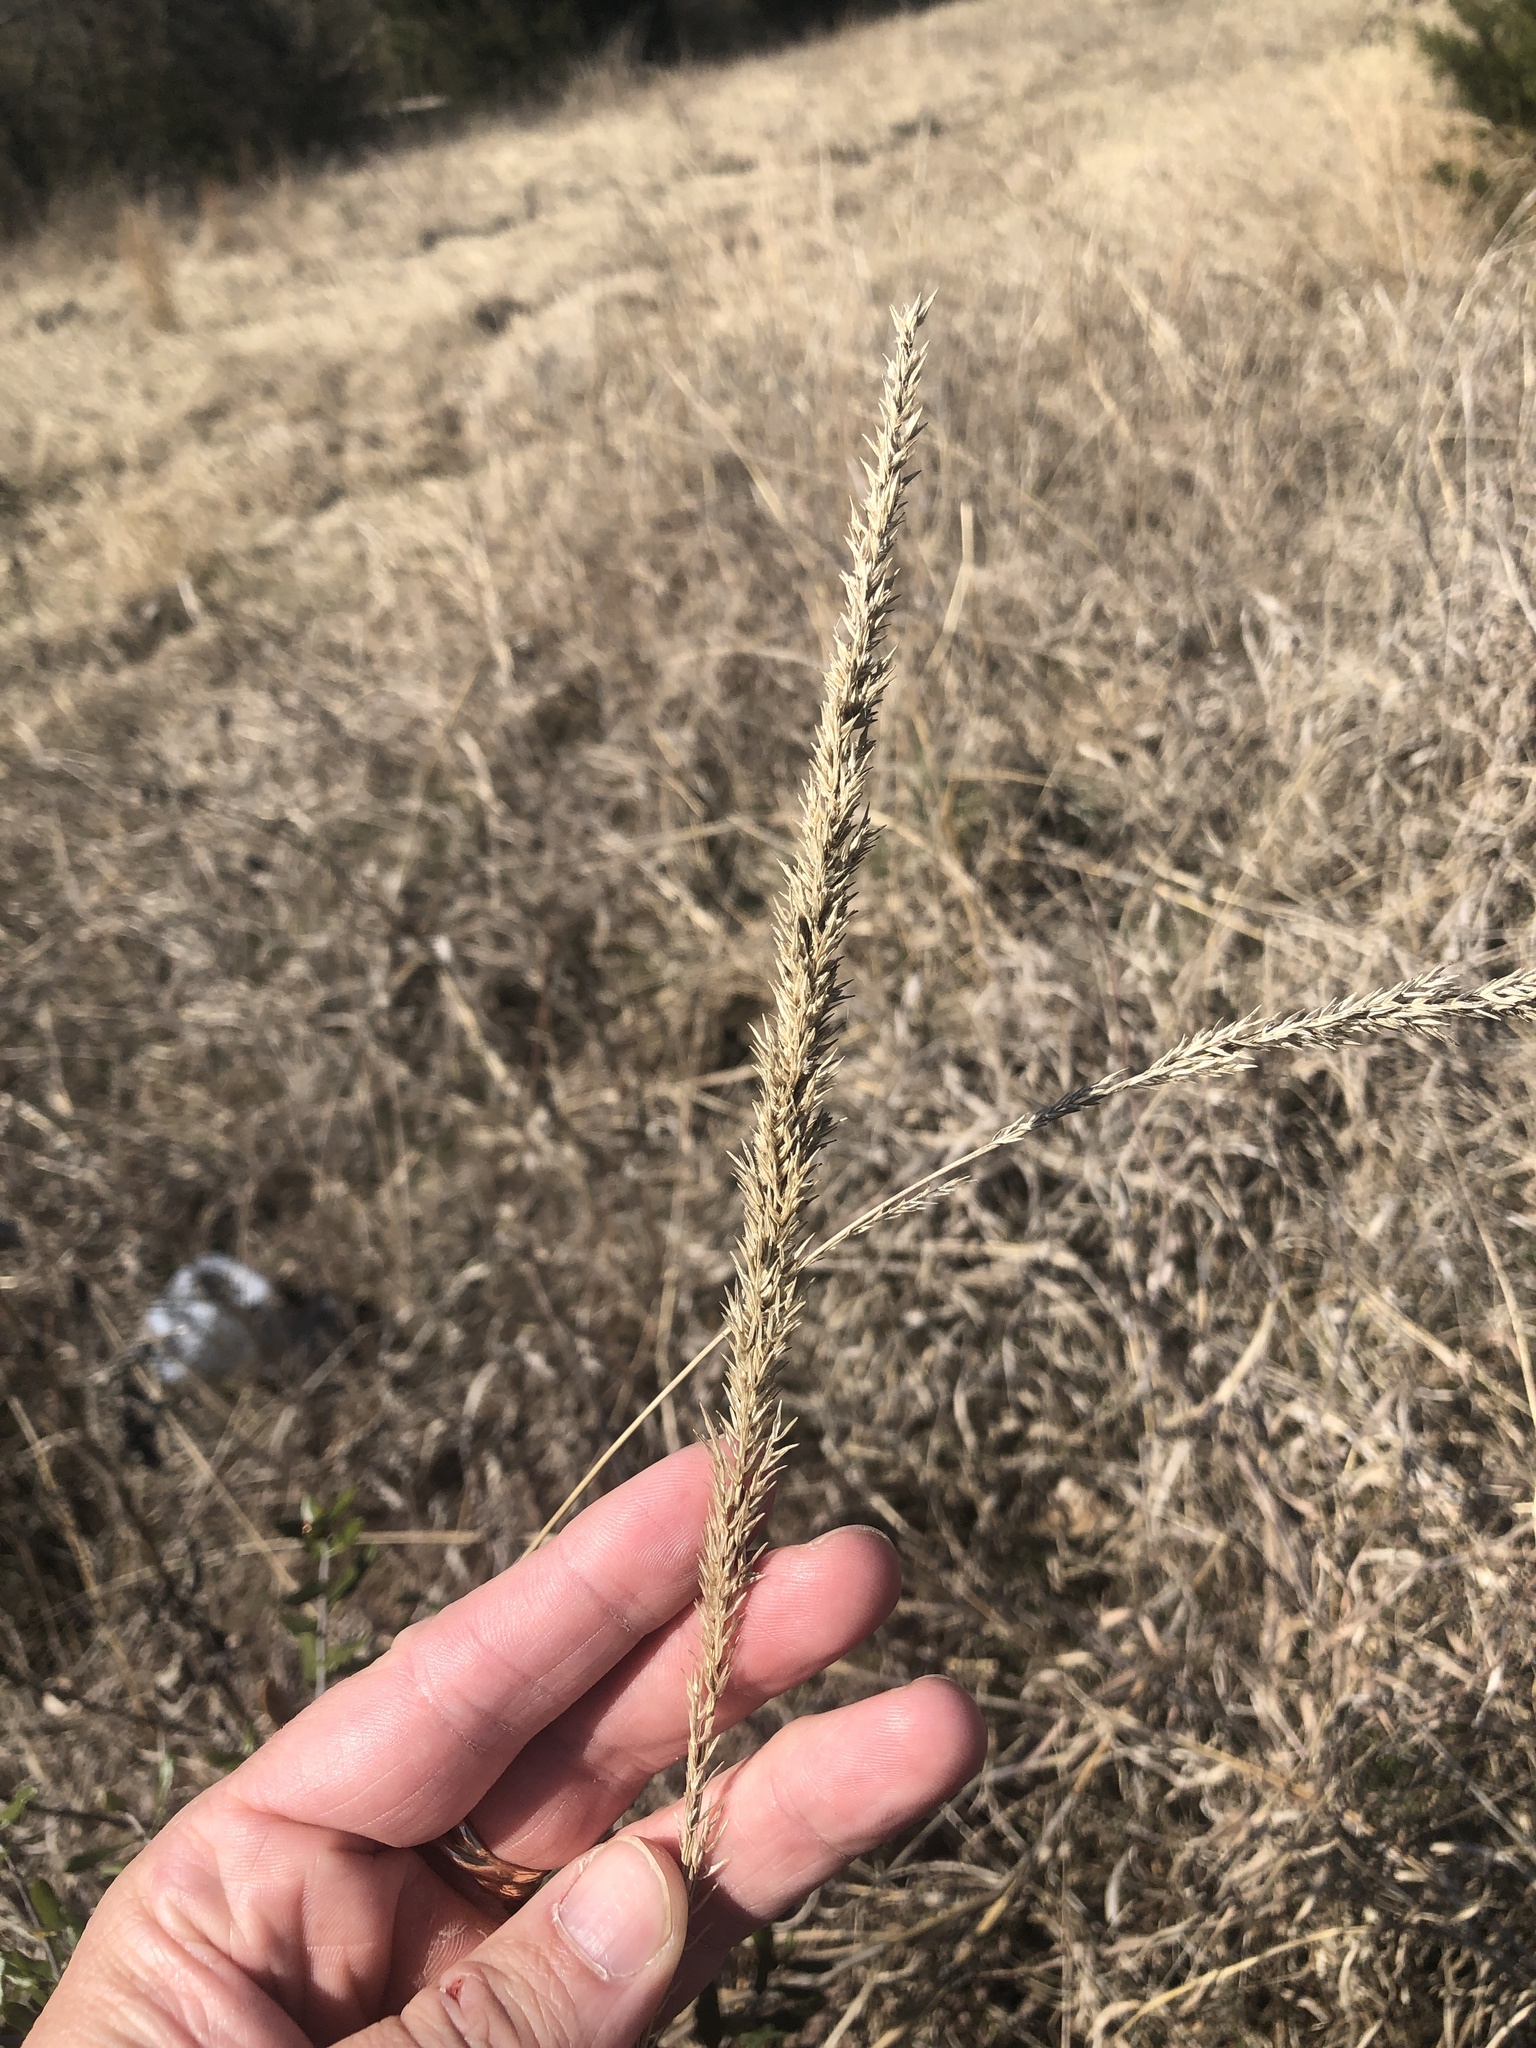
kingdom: Plantae
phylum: Tracheophyta
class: Liliopsida
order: Poales
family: Poaceae
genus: Tridens
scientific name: Tridens strictus
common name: Long-spike tridens
